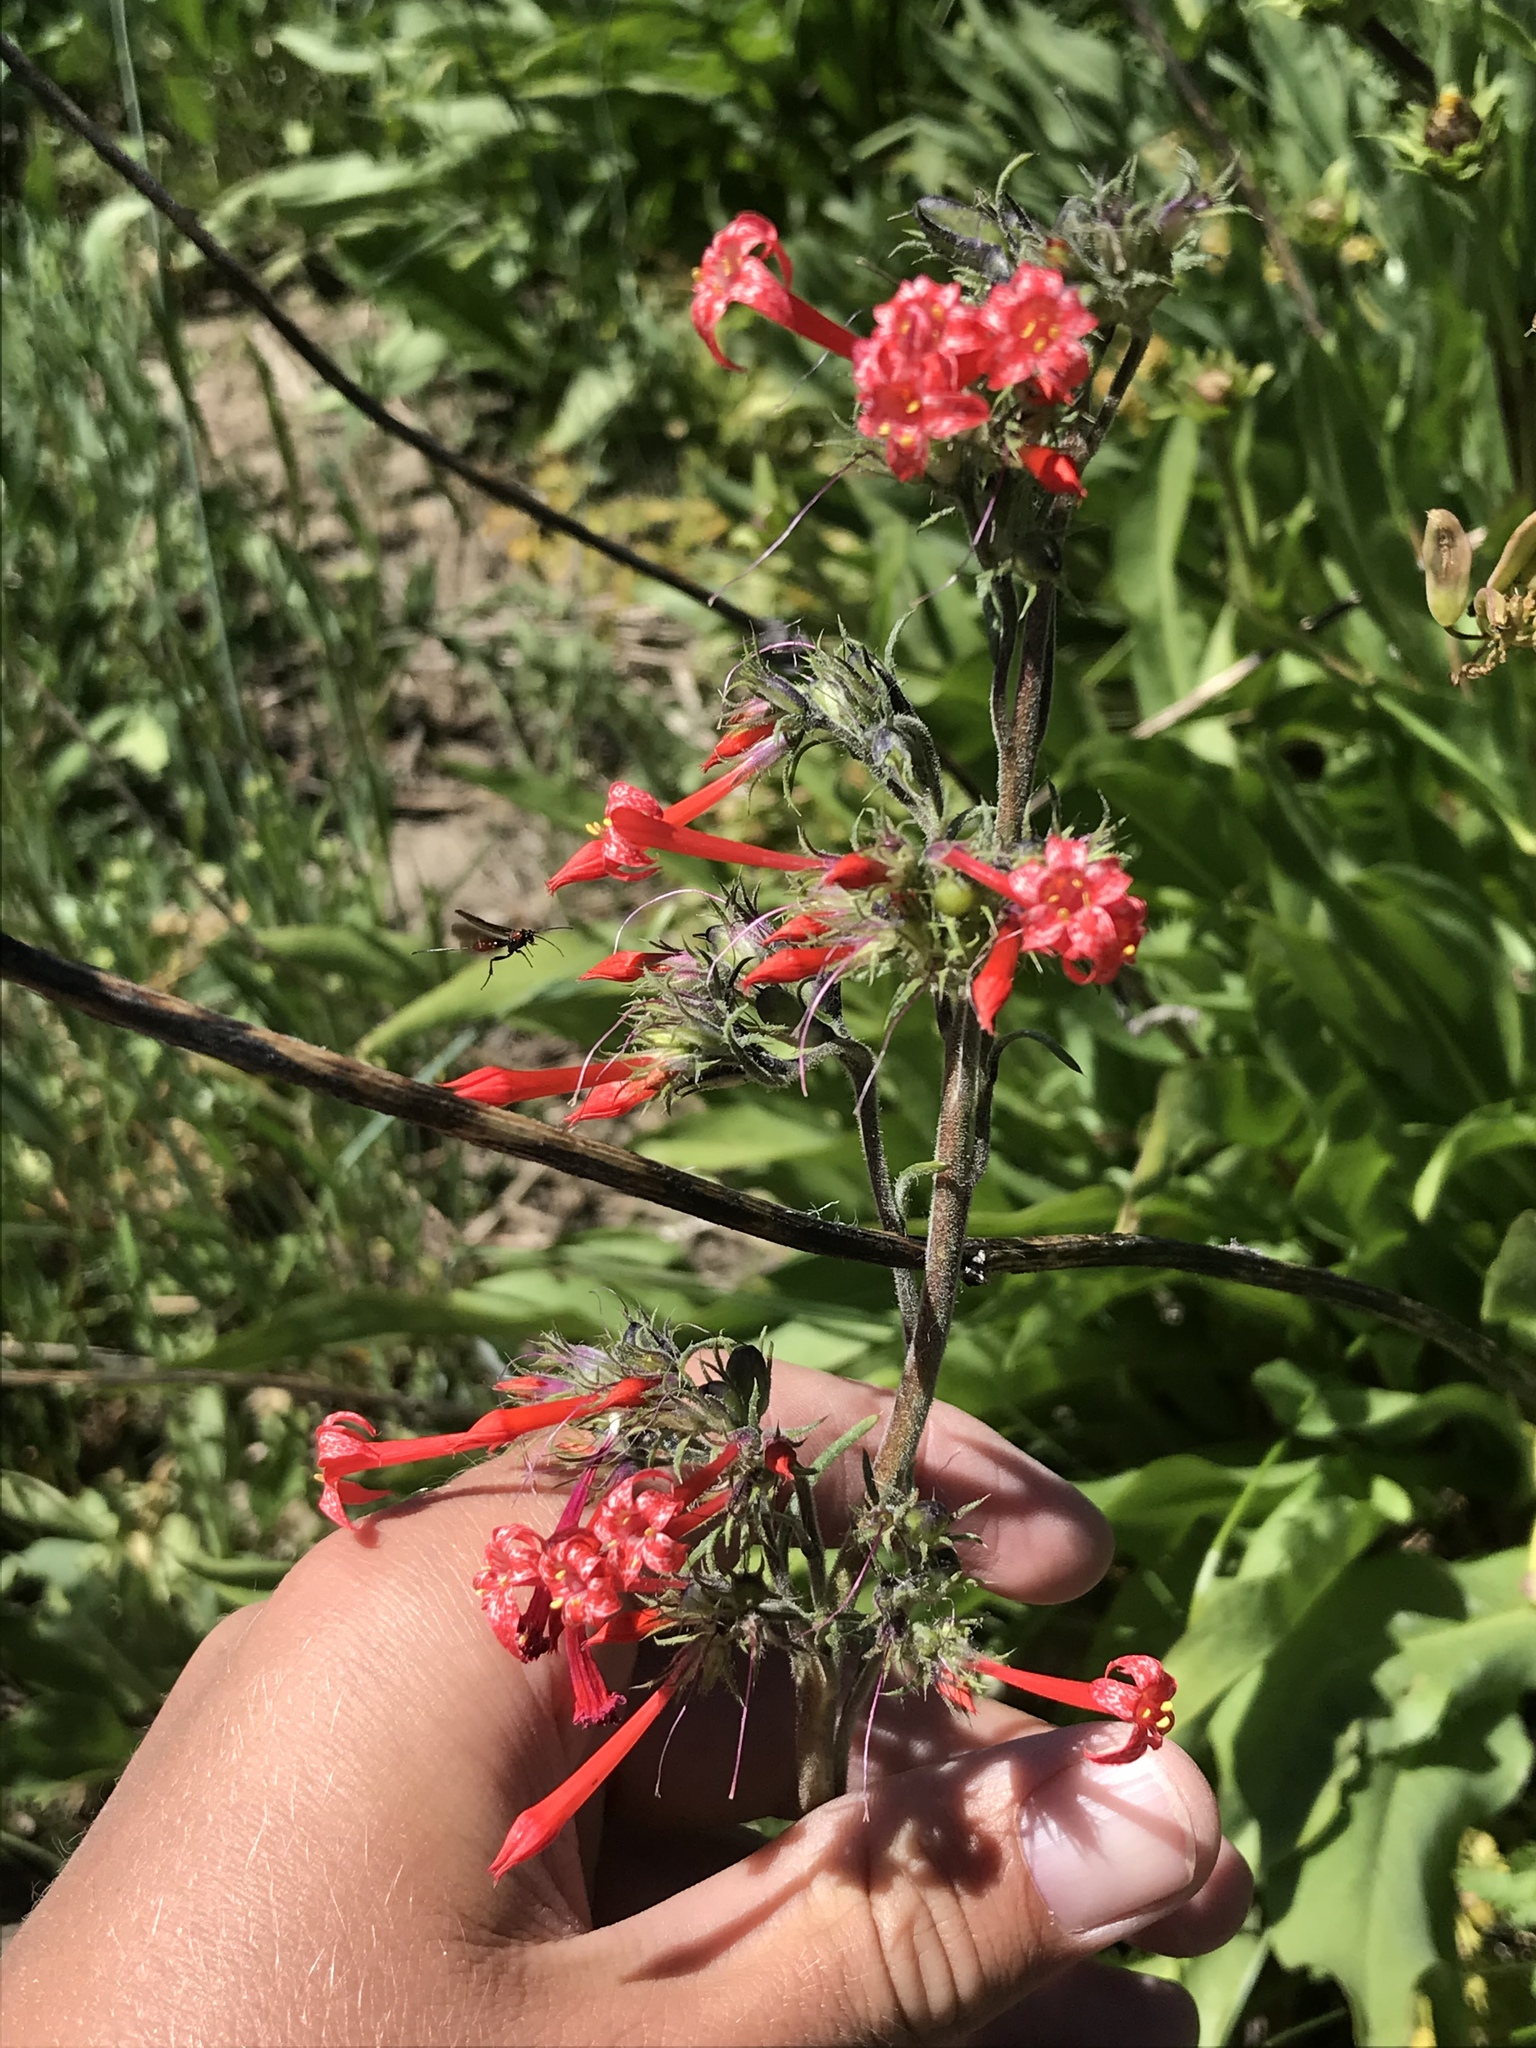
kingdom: Plantae
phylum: Tracheophyta
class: Magnoliopsida
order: Ericales
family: Polemoniaceae
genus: Ipomopsis
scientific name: Ipomopsis aggregata
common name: Scarlet gilia
